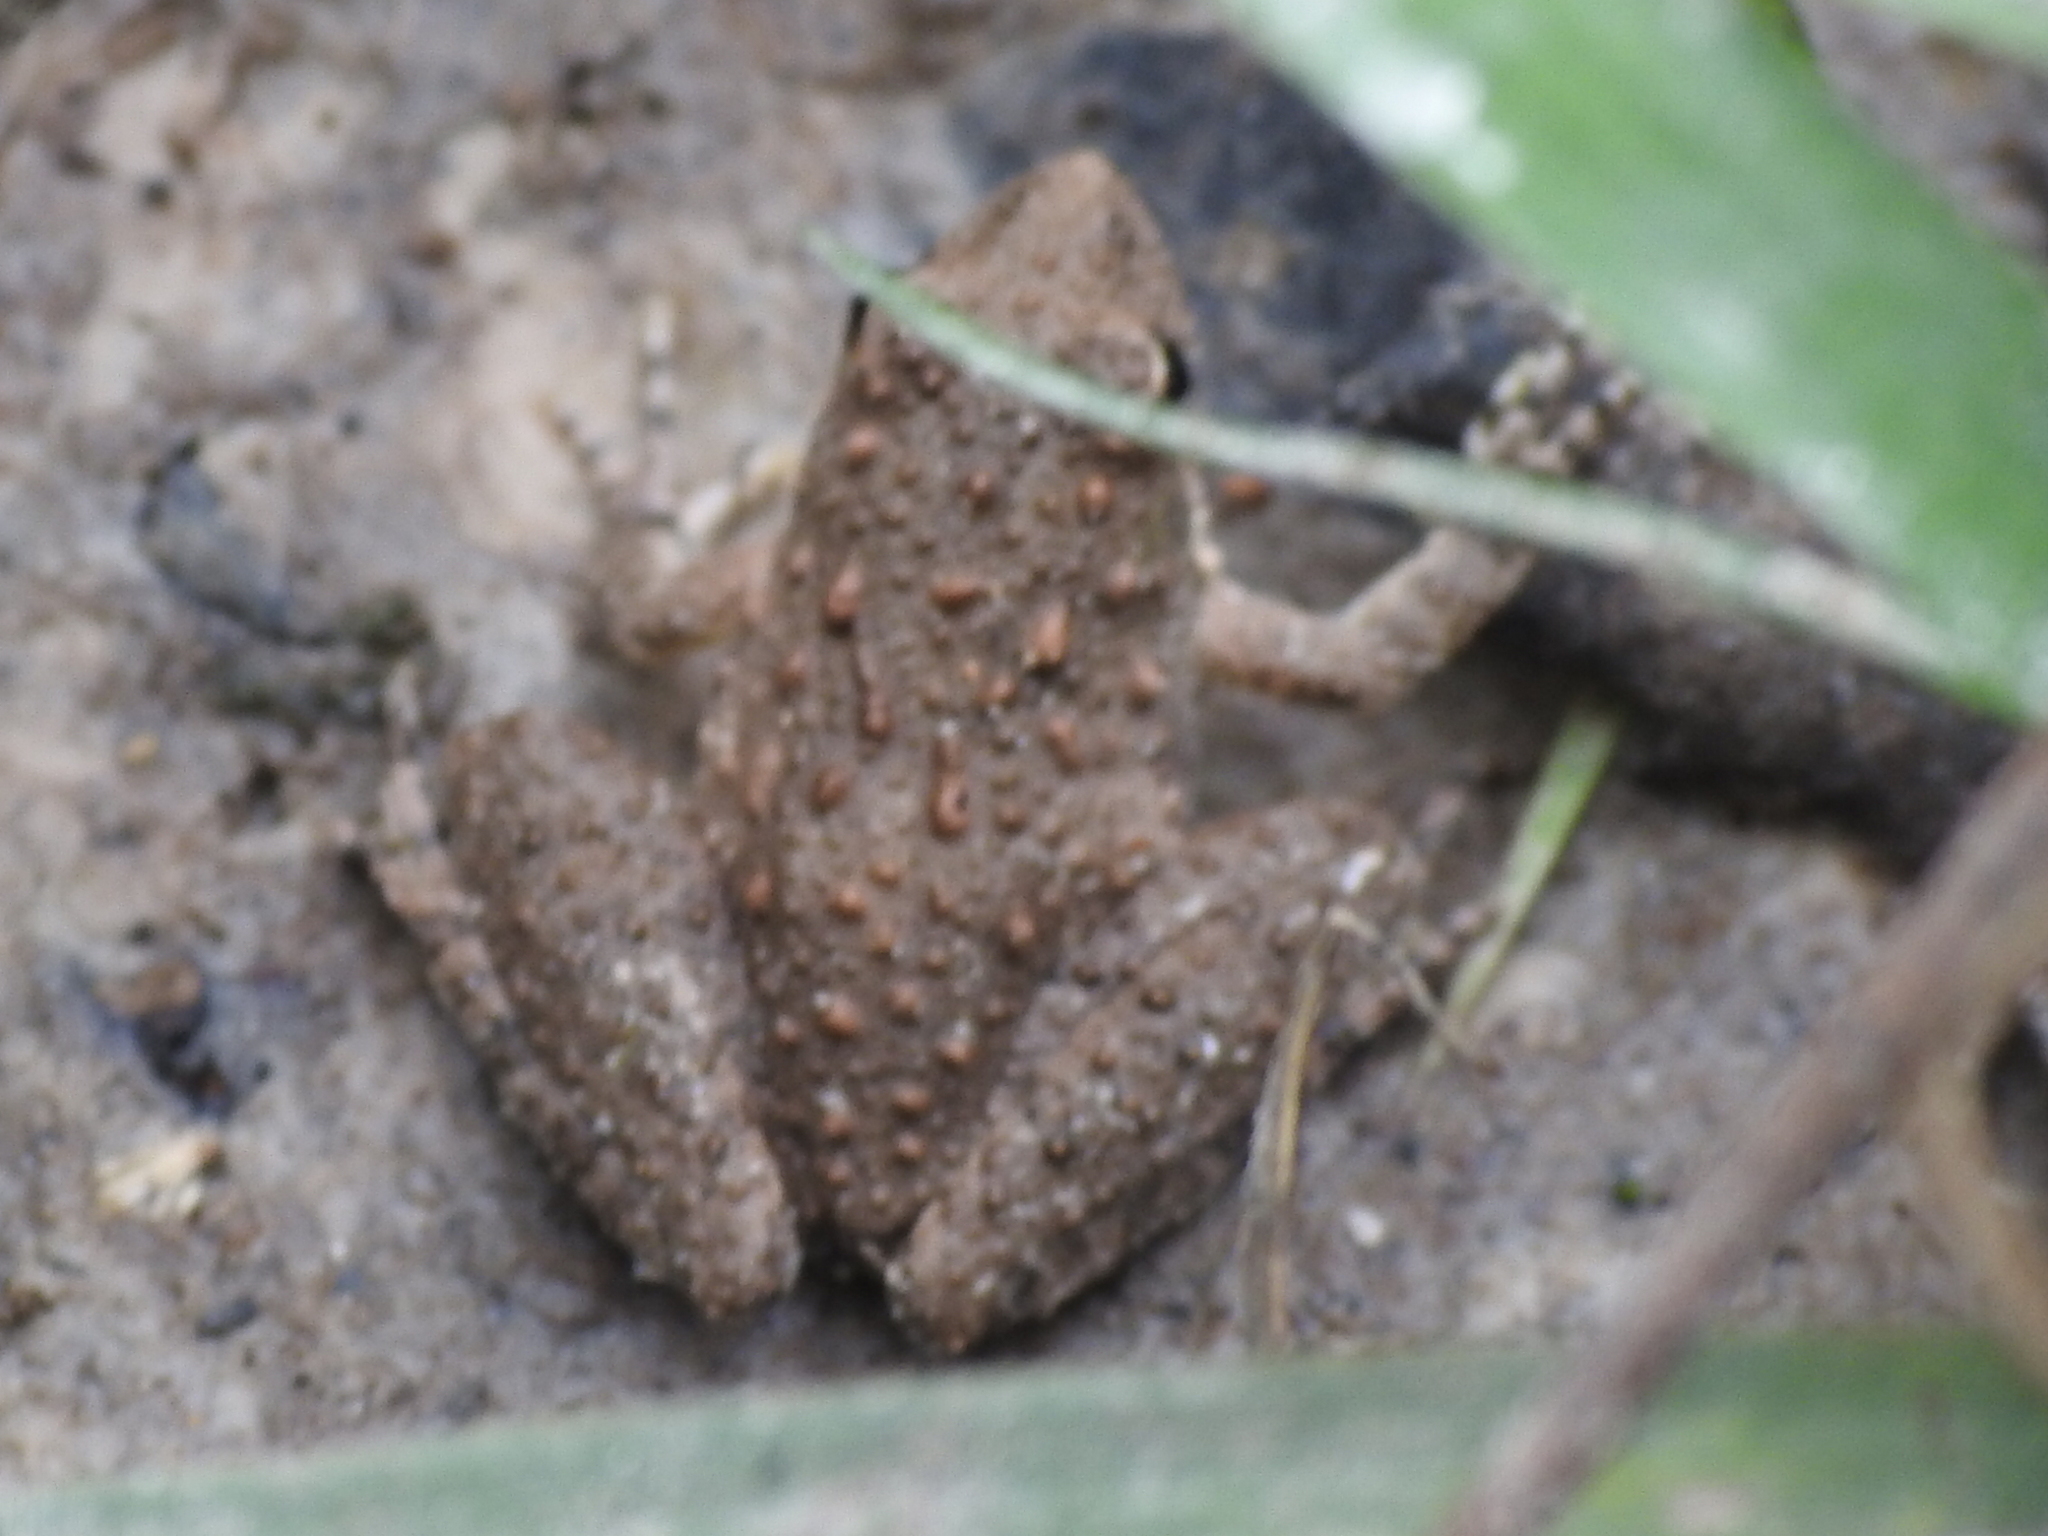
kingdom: Animalia
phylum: Chordata
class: Amphibia
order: Anura
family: Hylidae
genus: Acris
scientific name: Acris blanchardi
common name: Blanchard's cricket frog
